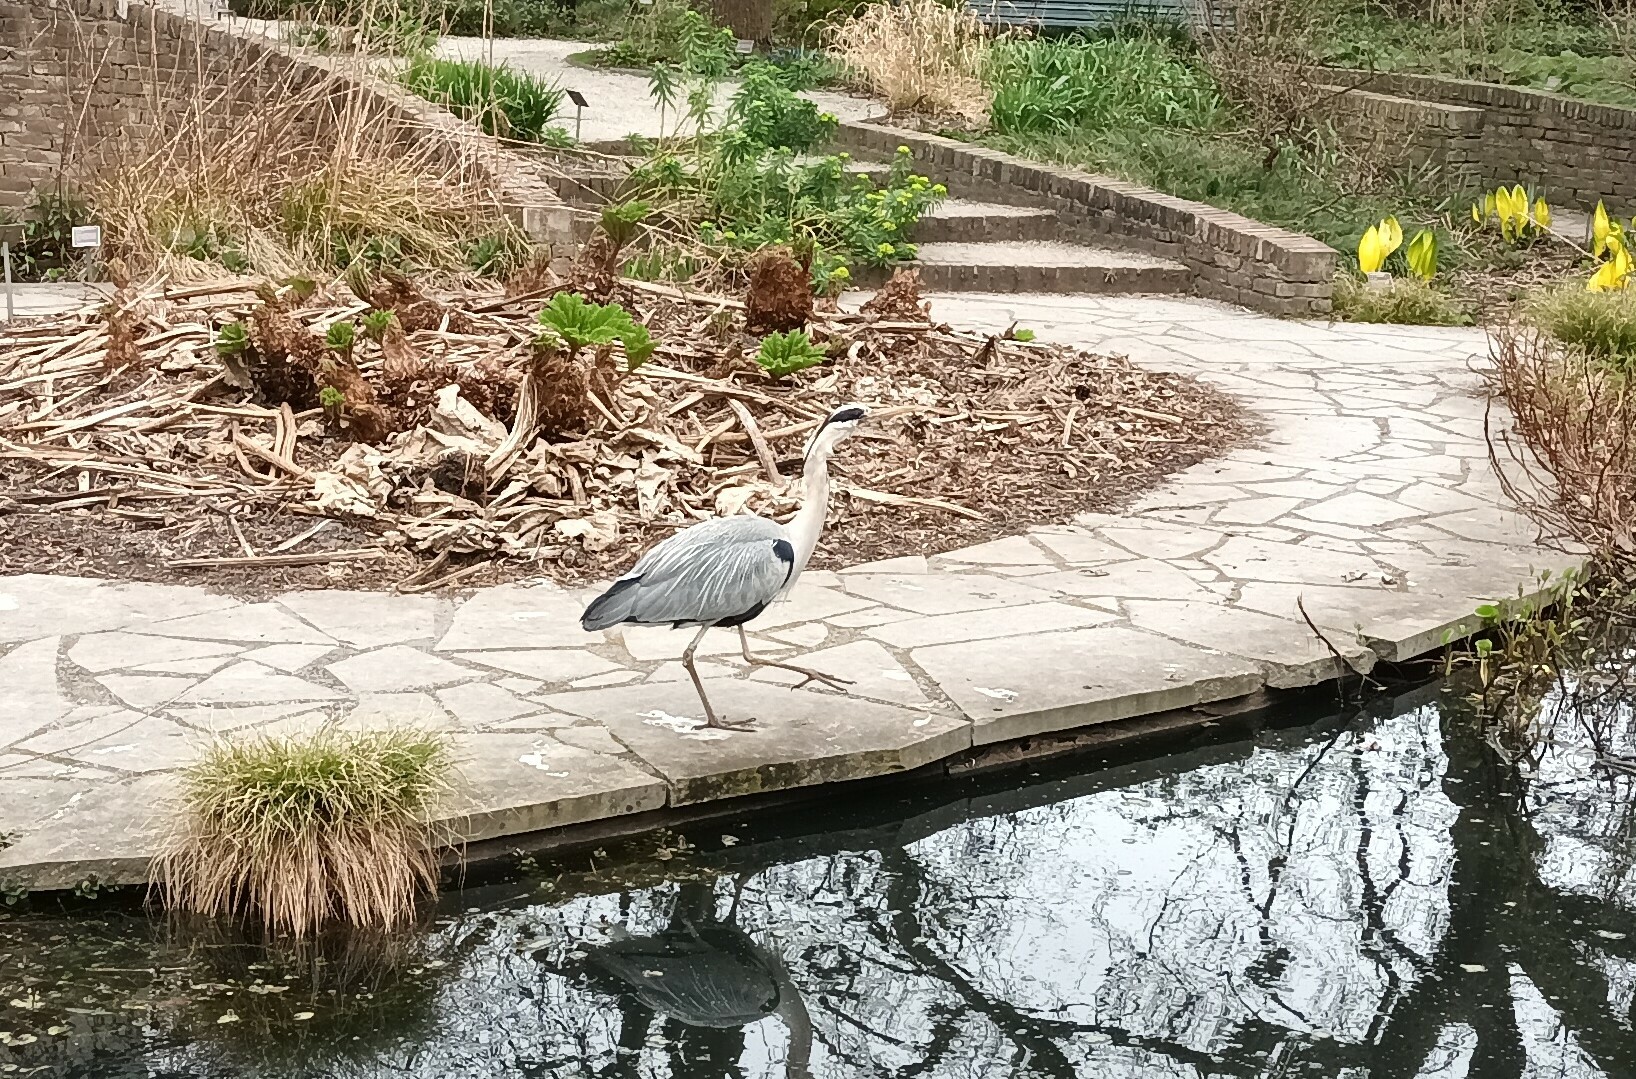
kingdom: Animalia
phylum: Chordata
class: Aves
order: Pelecaniformes
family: Ardeidae
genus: Ardea
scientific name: Ardea cinerea
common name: Grey heron
